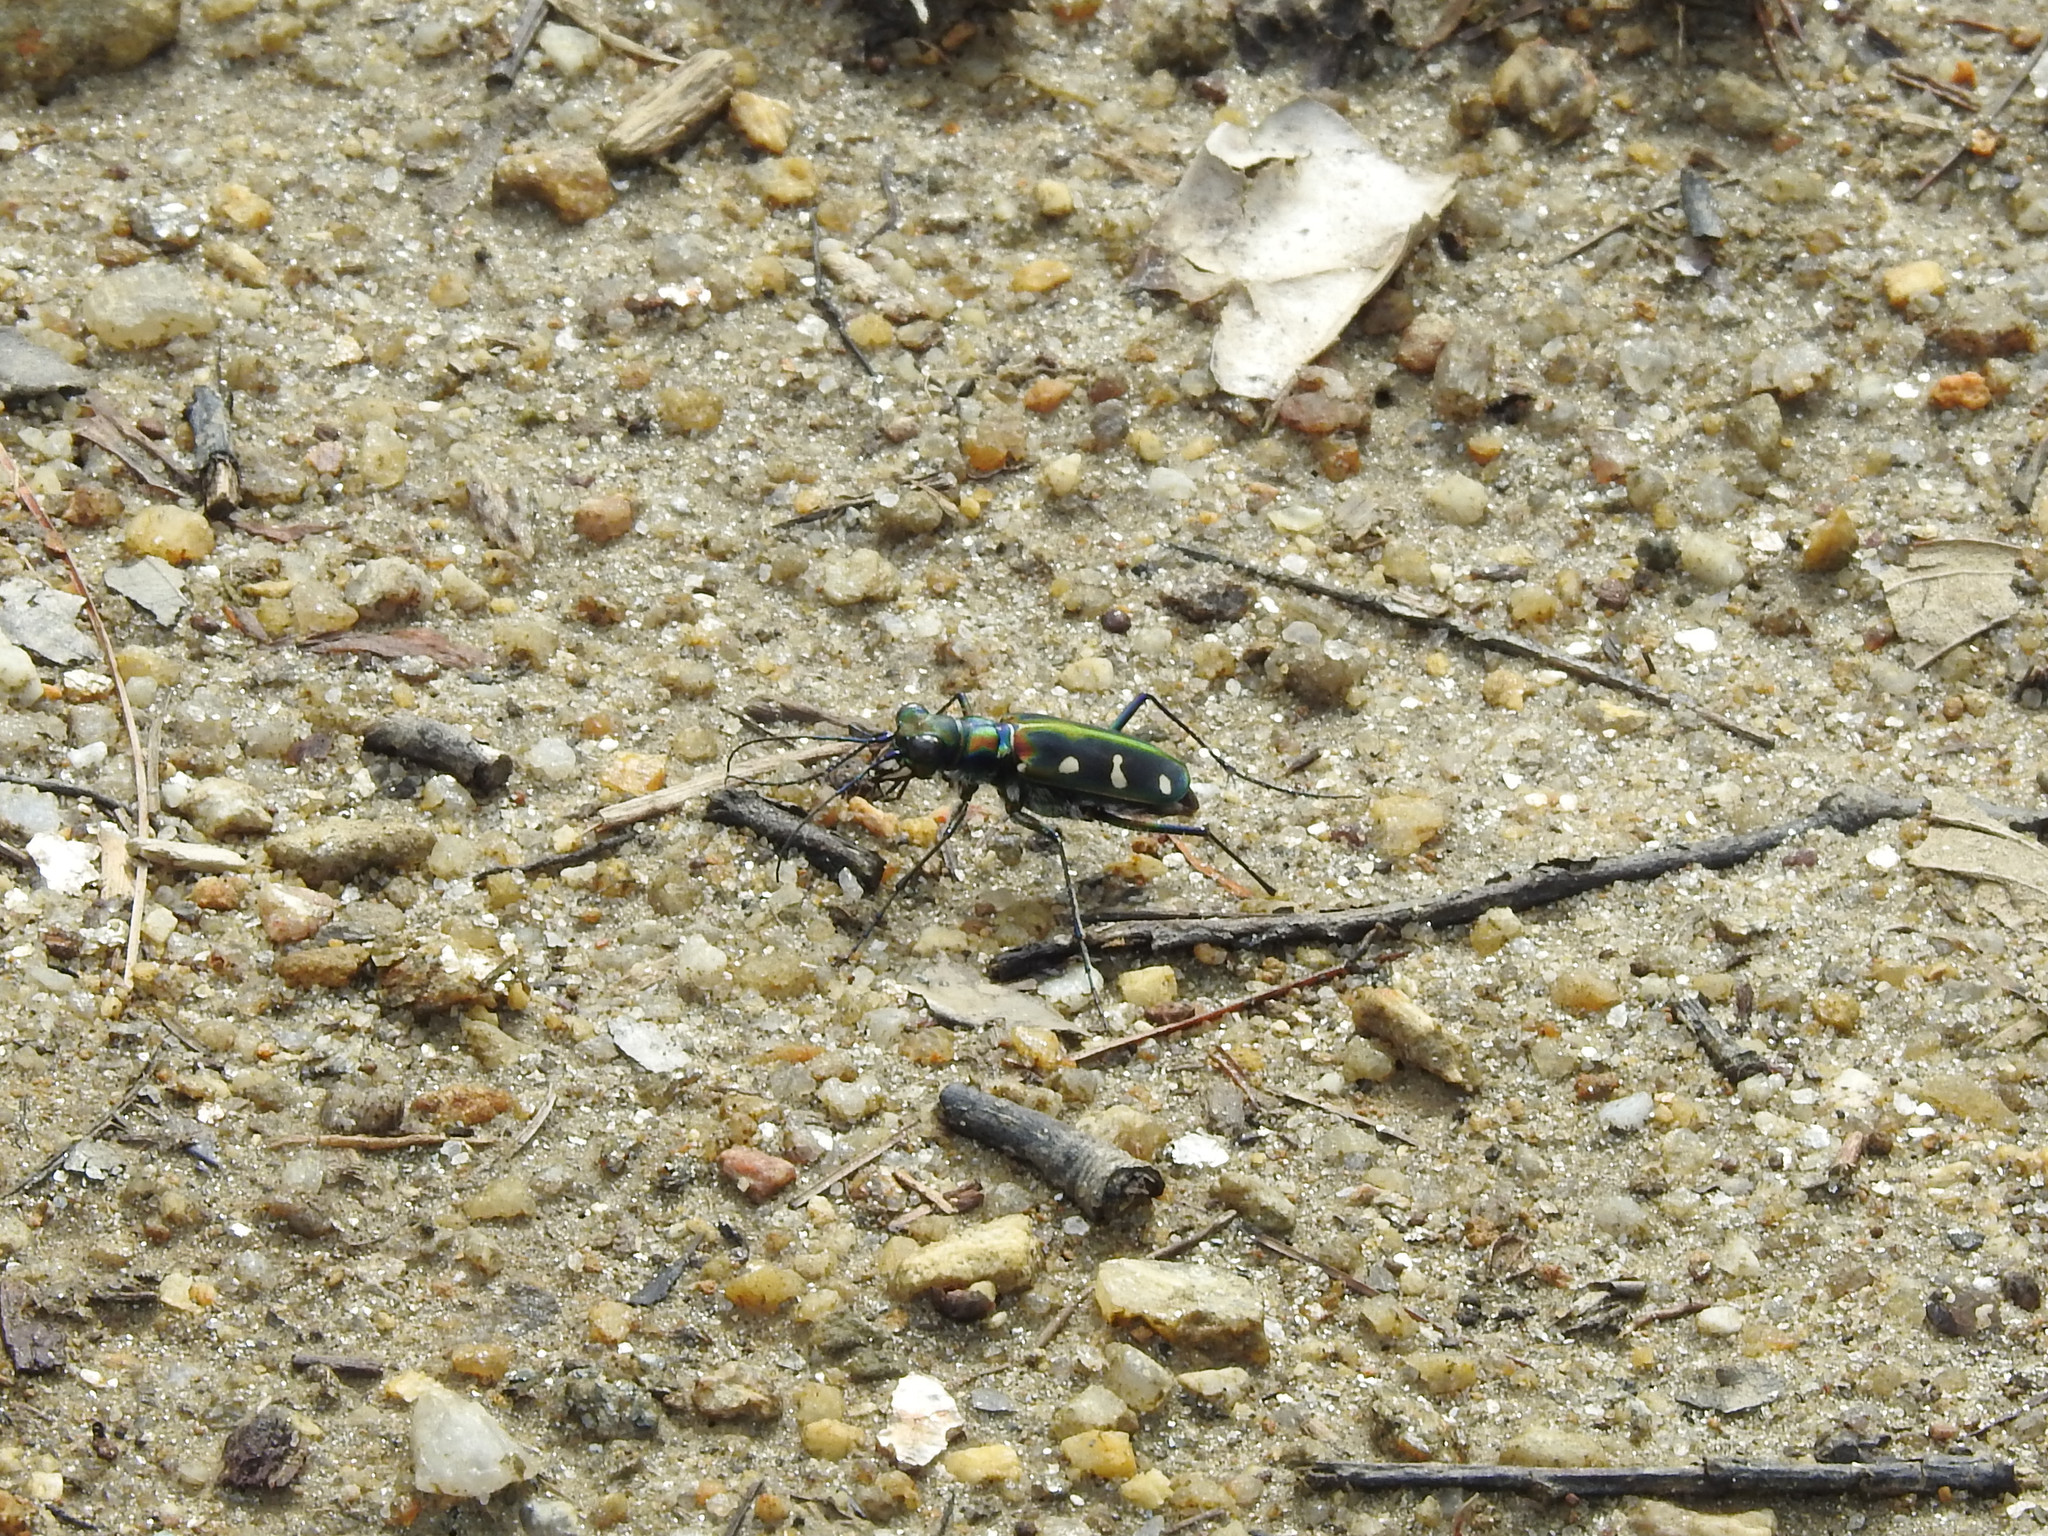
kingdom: Animalia
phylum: Arthropoda
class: Insecta
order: Coleoptera
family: Carabidae
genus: Cicindela
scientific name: Cicindela virgula
